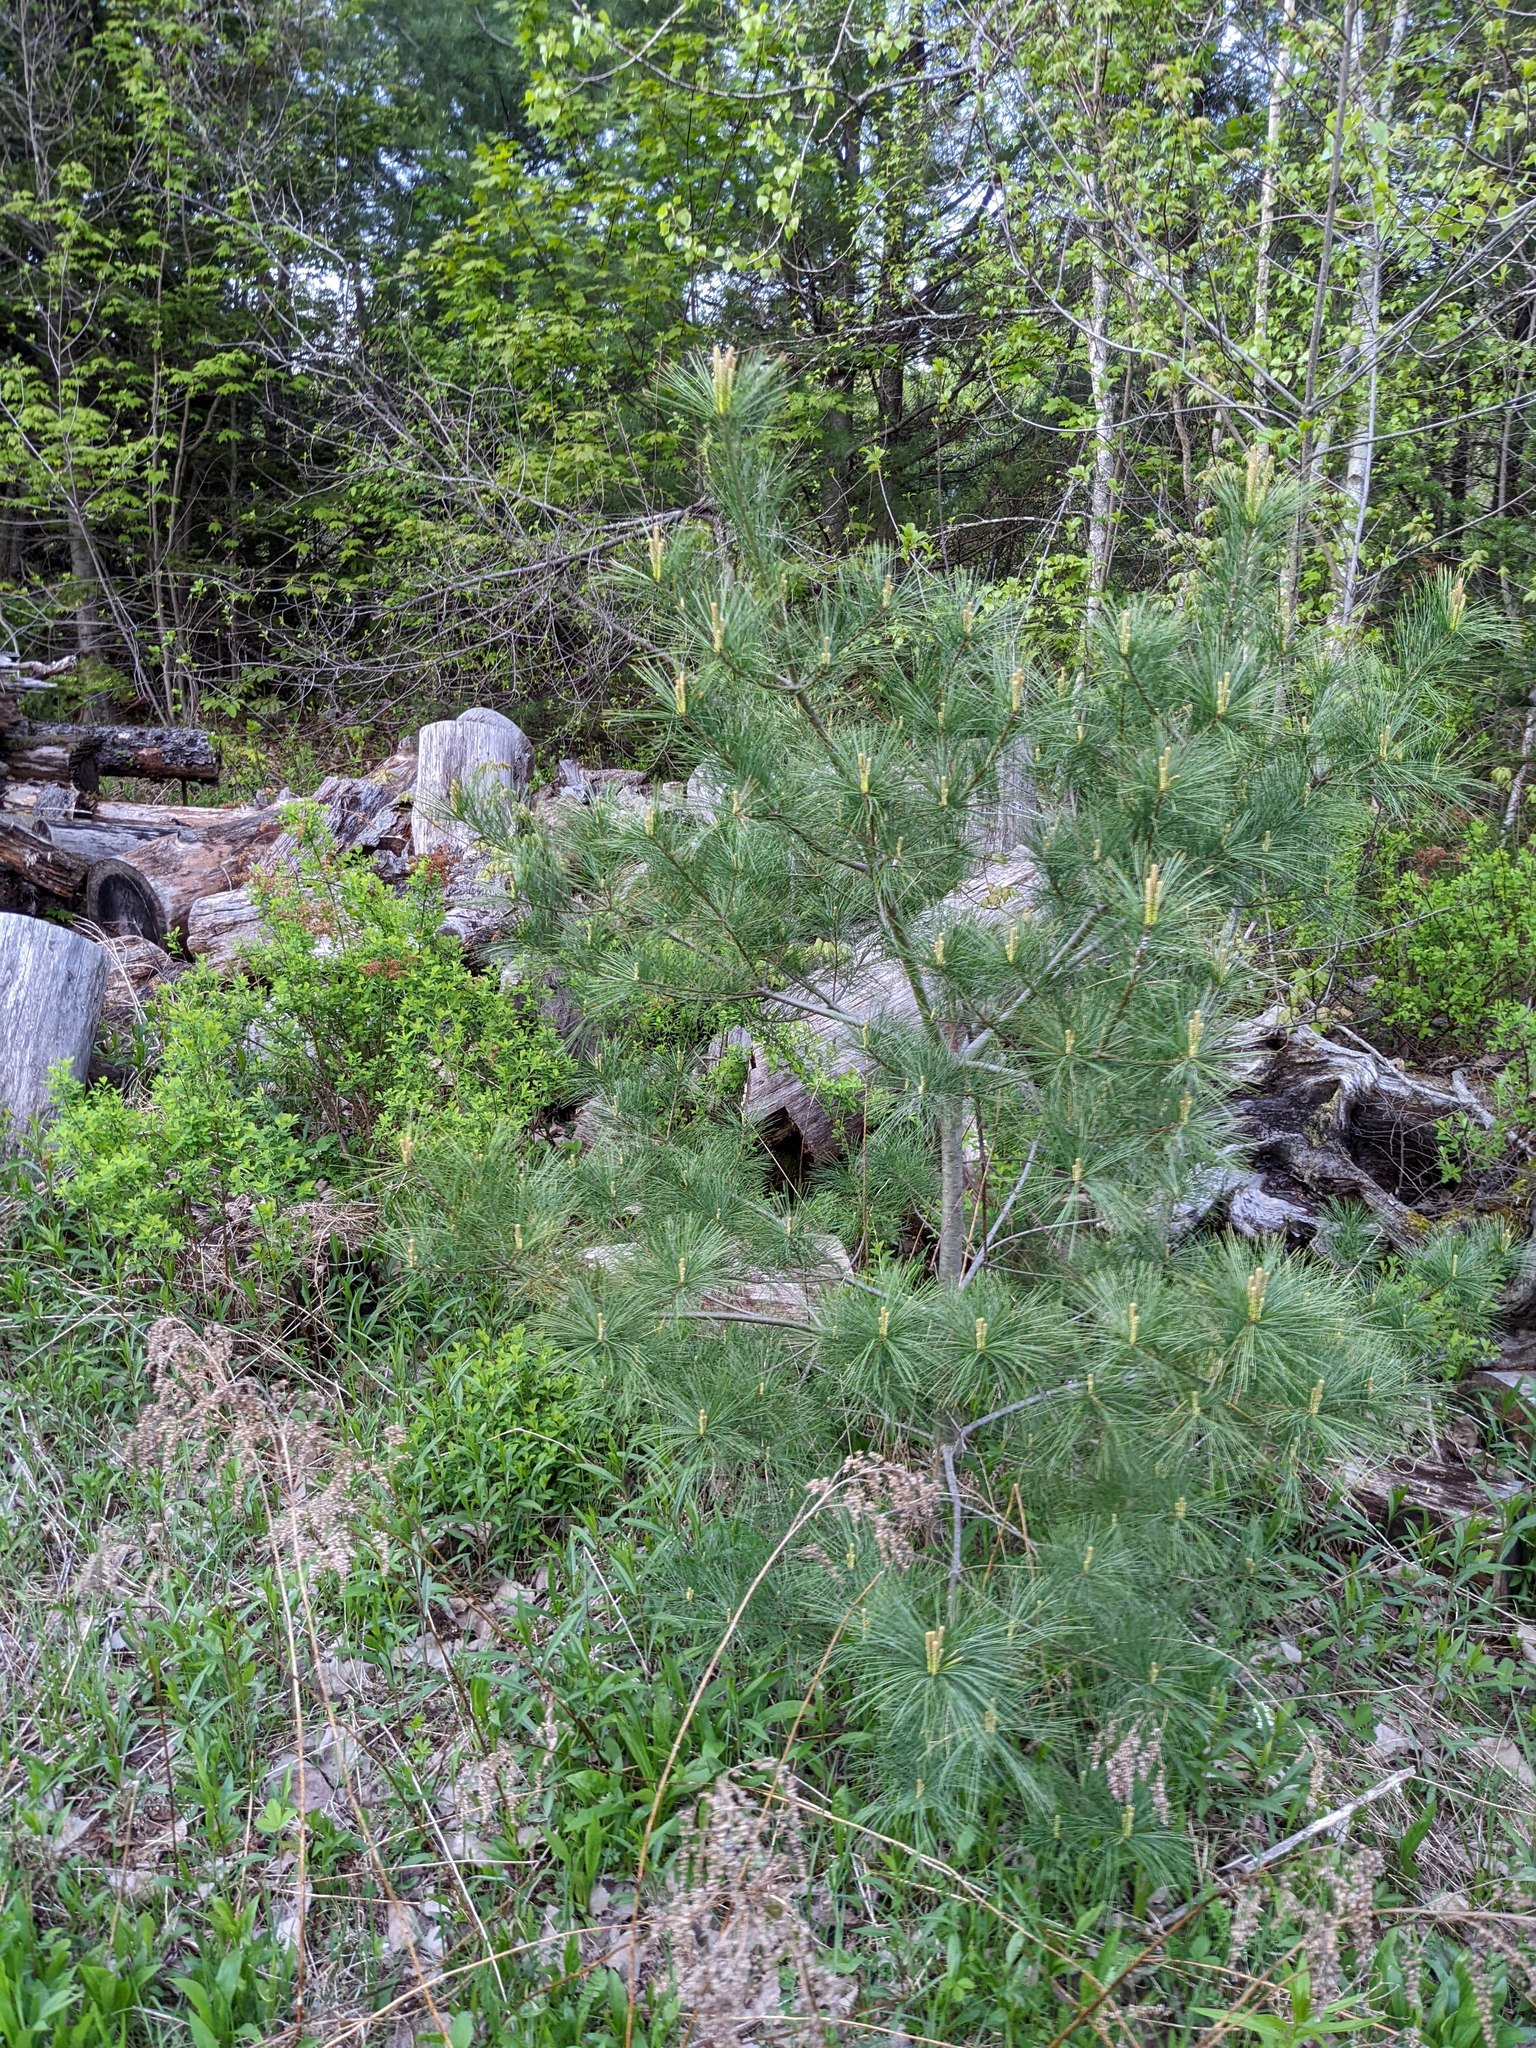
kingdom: Plantae
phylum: Tracheophyta
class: Pinopsida
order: Pinales
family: Pinaceae
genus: Pinus
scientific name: Pinus strobus
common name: Weymouth pine
